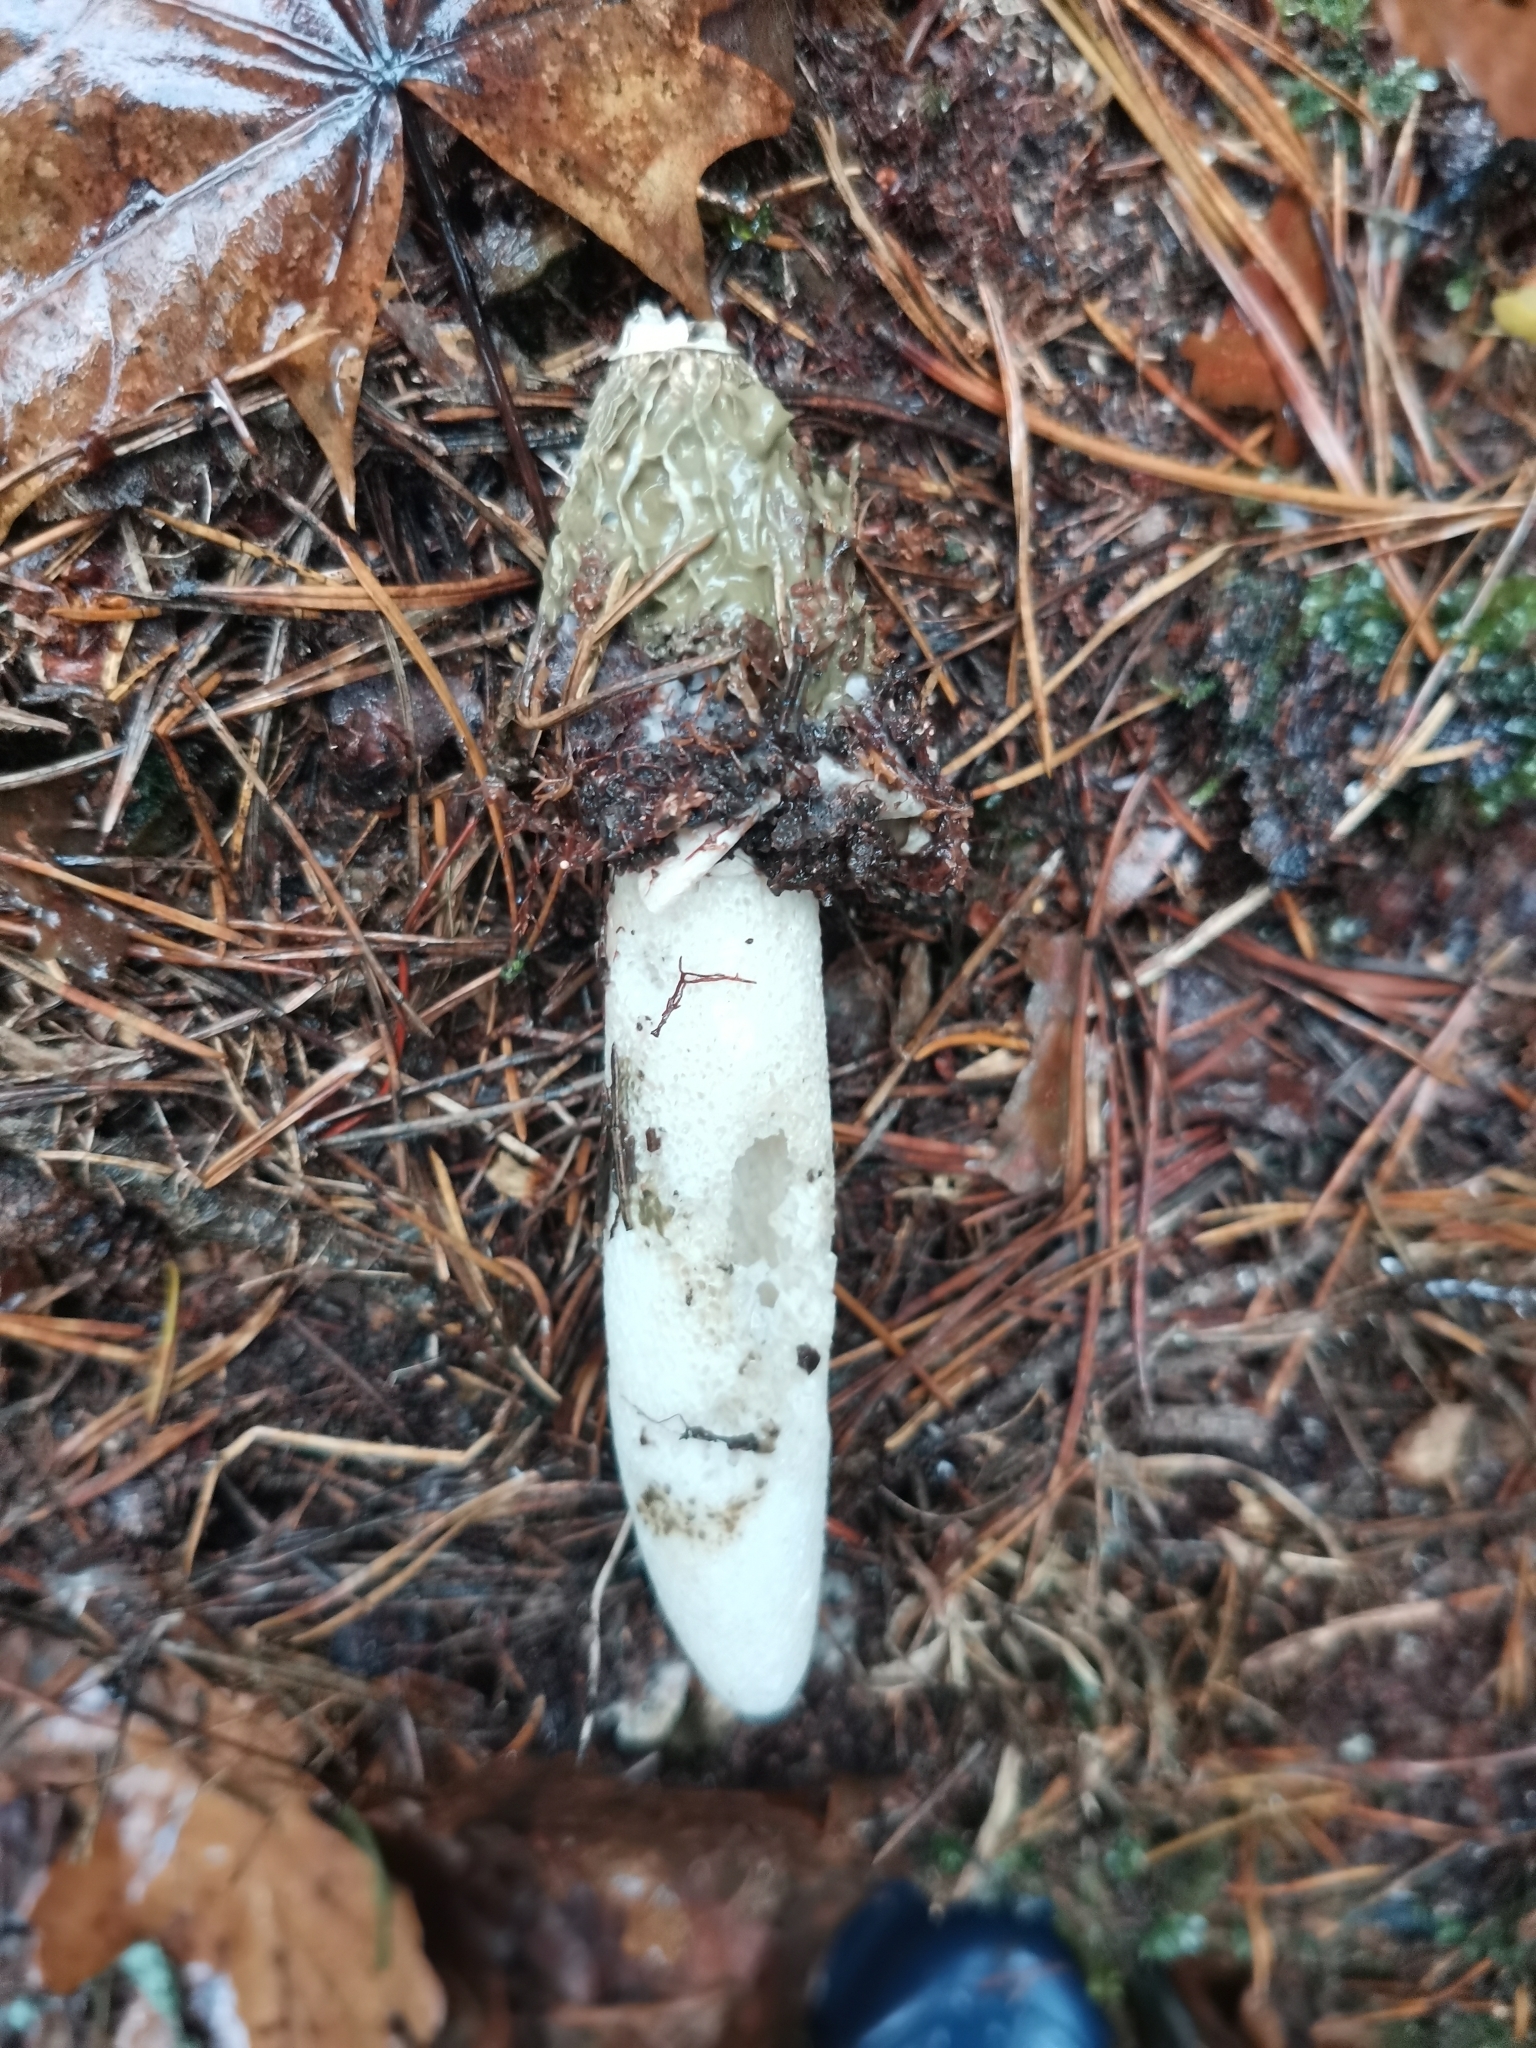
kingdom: Fungi
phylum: Basidiomycota
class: Agaricomycetes
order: Phallales
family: Phallaceae
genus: Phallus
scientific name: Phallus impudicus
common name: Common stinkhorn
